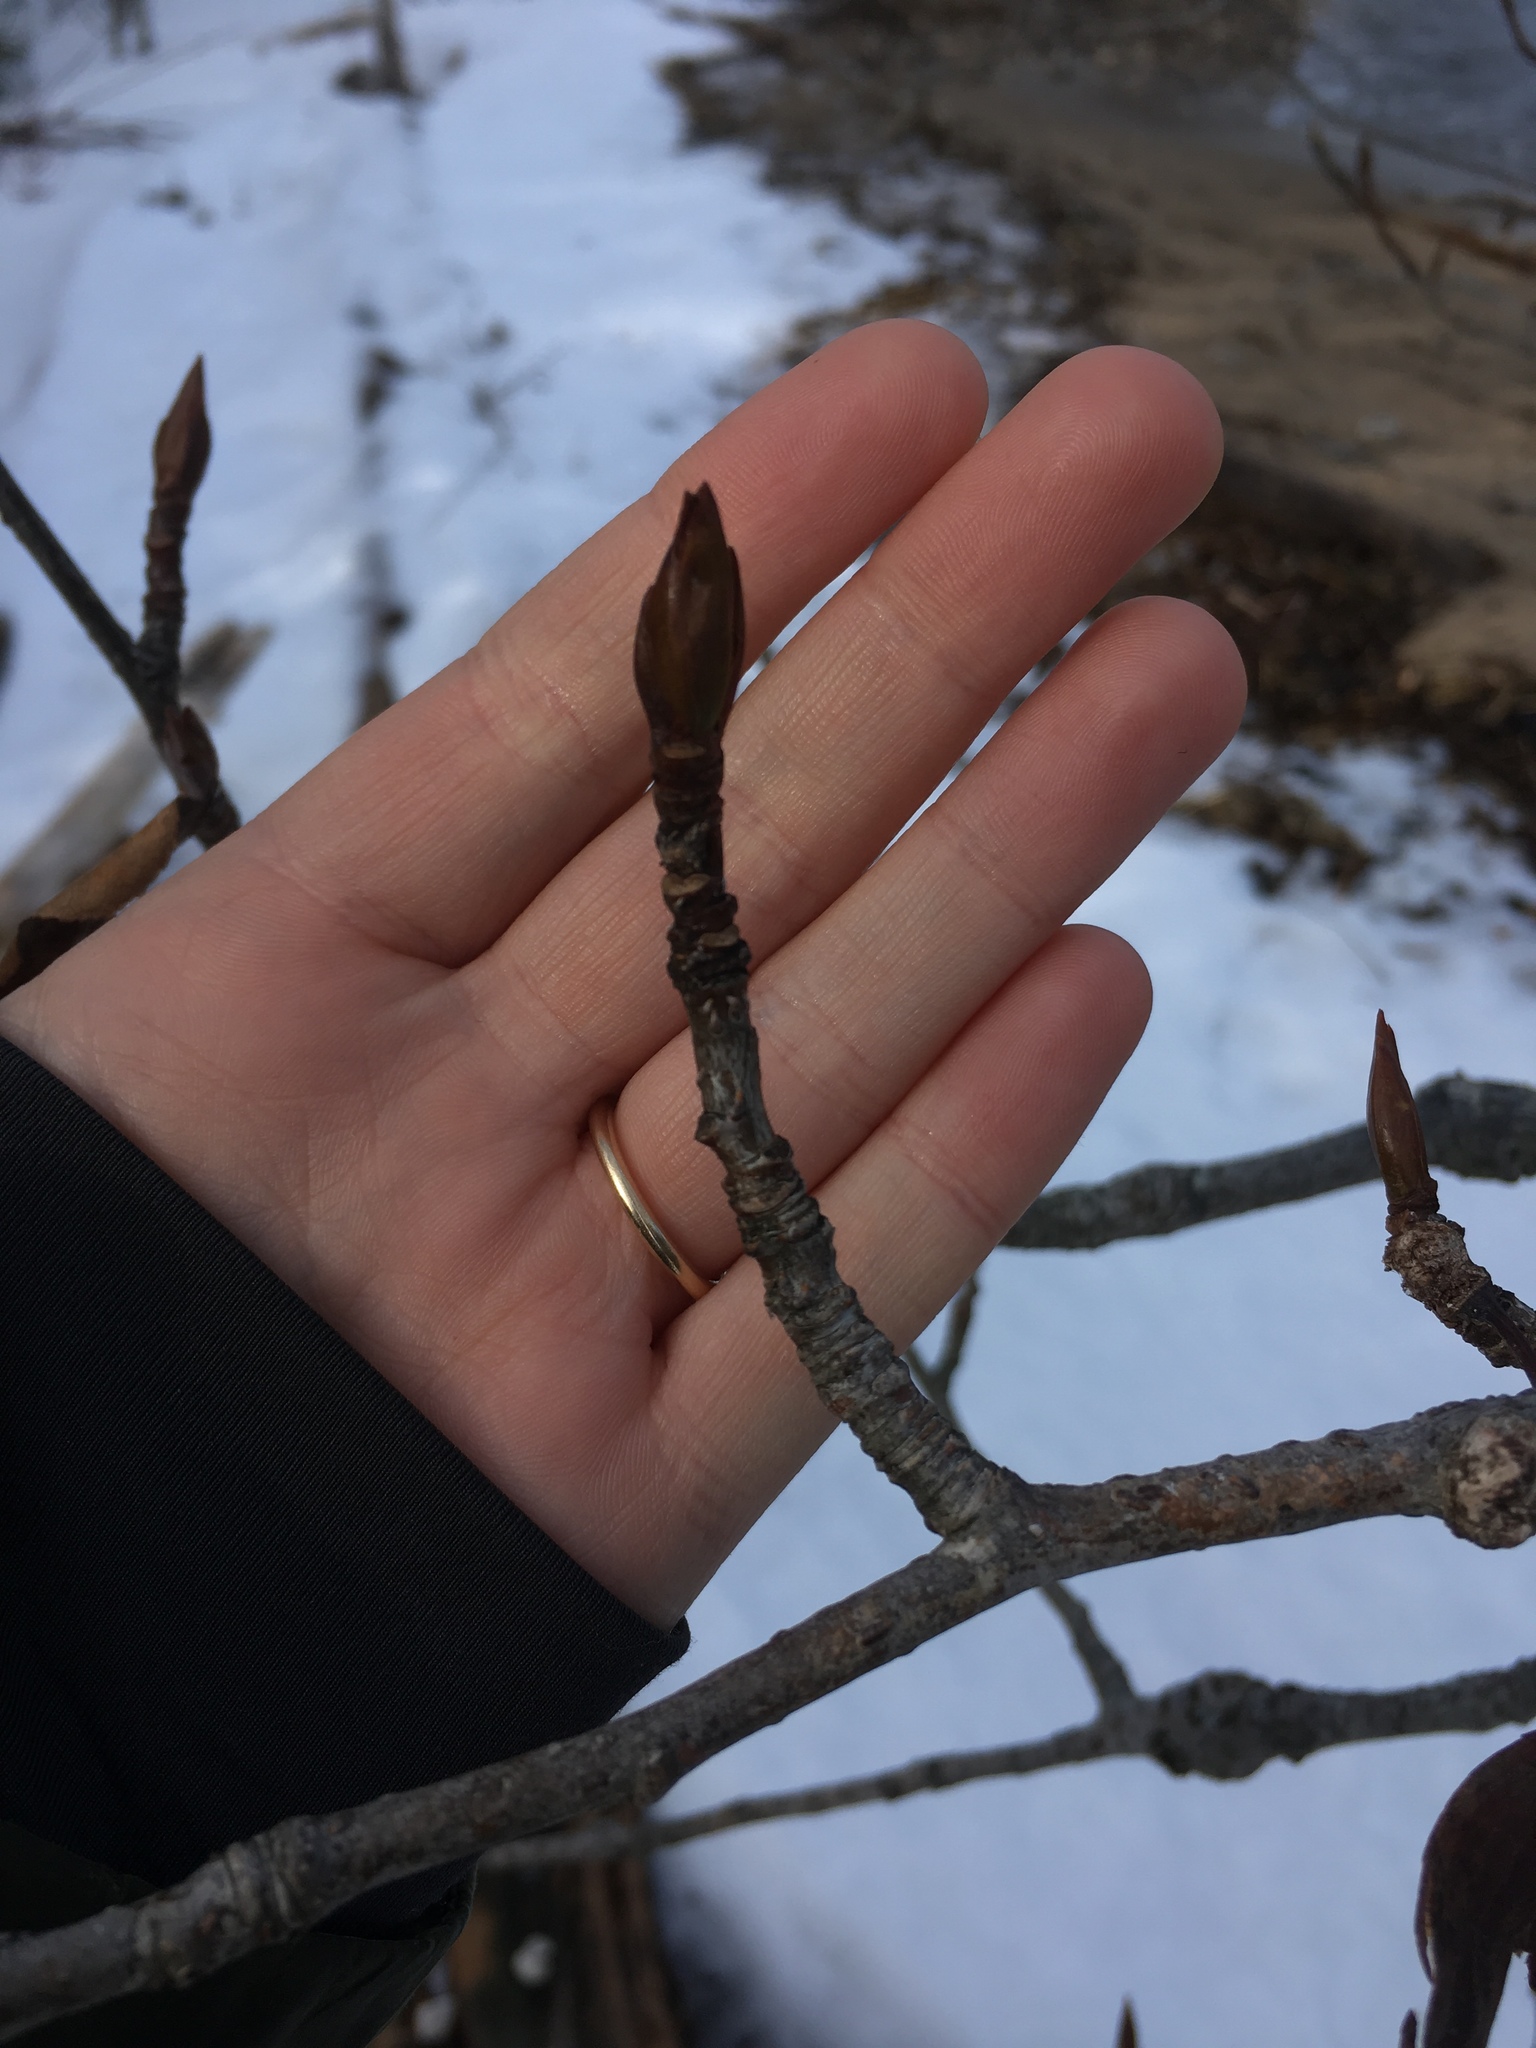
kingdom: Plantae
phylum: Tracheophyta
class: Magnoliopsida
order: Malpighiales
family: Salicaceae
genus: Populus
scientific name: Populus balsamifera
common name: Balsam poplar
